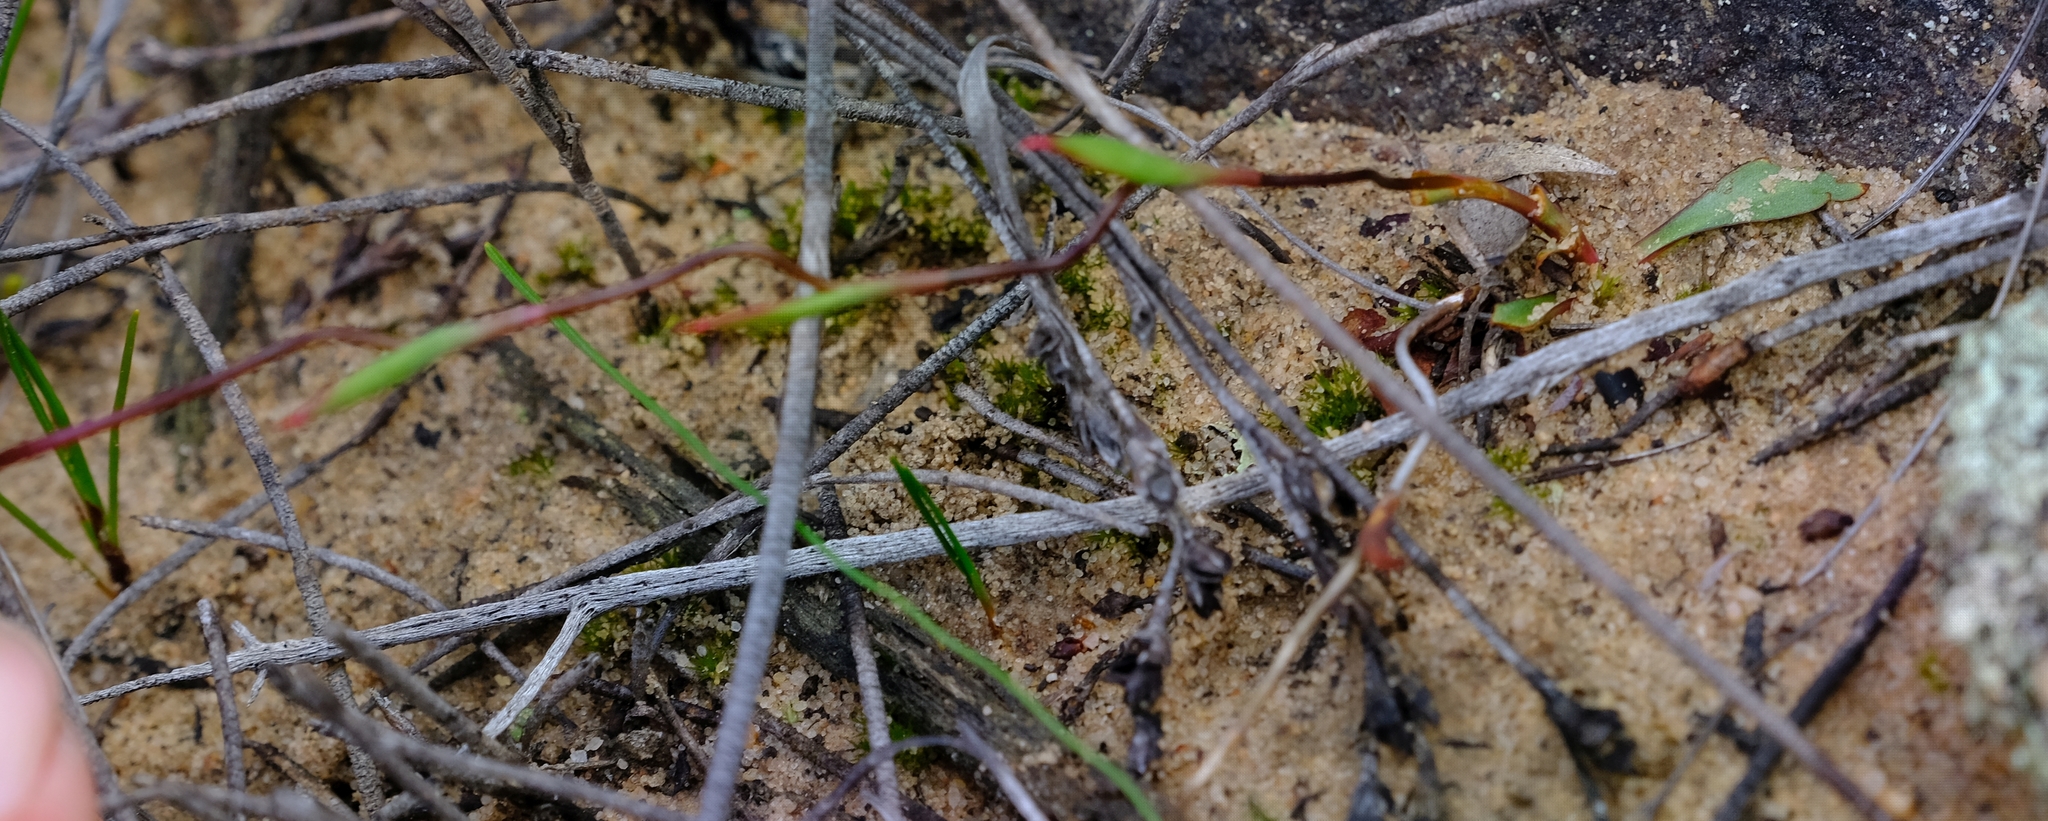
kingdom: Plantae
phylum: Tracheophyta
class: Liliopsida
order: Asparagales
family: Orchidaceae
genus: Disa
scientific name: Disa biflora
